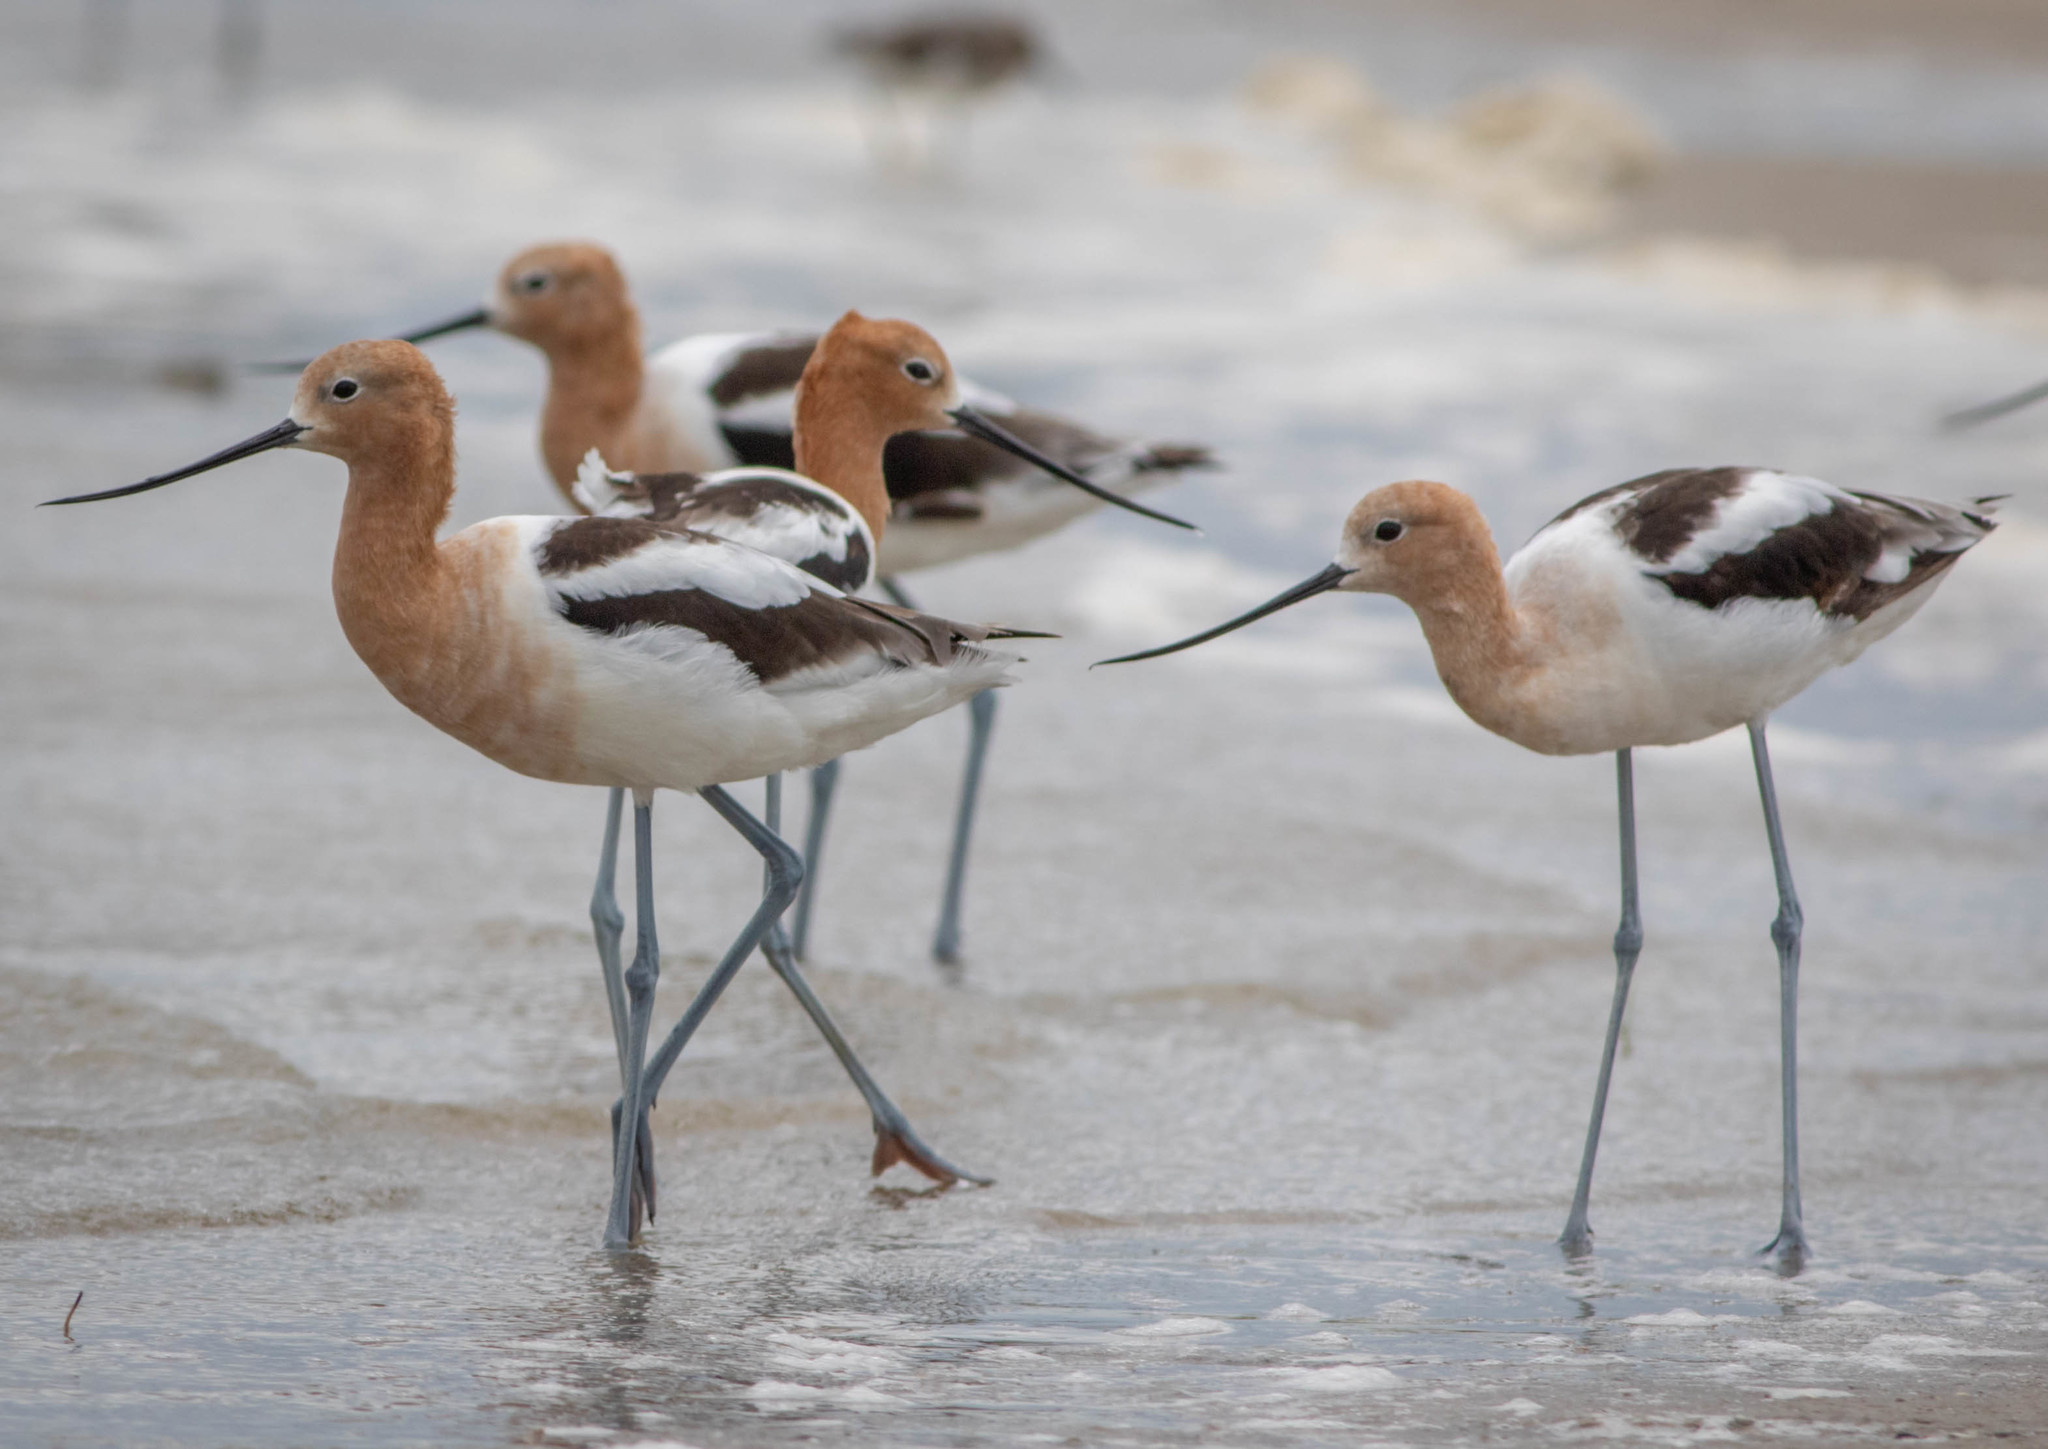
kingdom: Animalia
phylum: Chordata
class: Aves
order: Charadriiformes
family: Recurvirostridae
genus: Recurvirostra
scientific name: Recurvirostra americana
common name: American avocet
